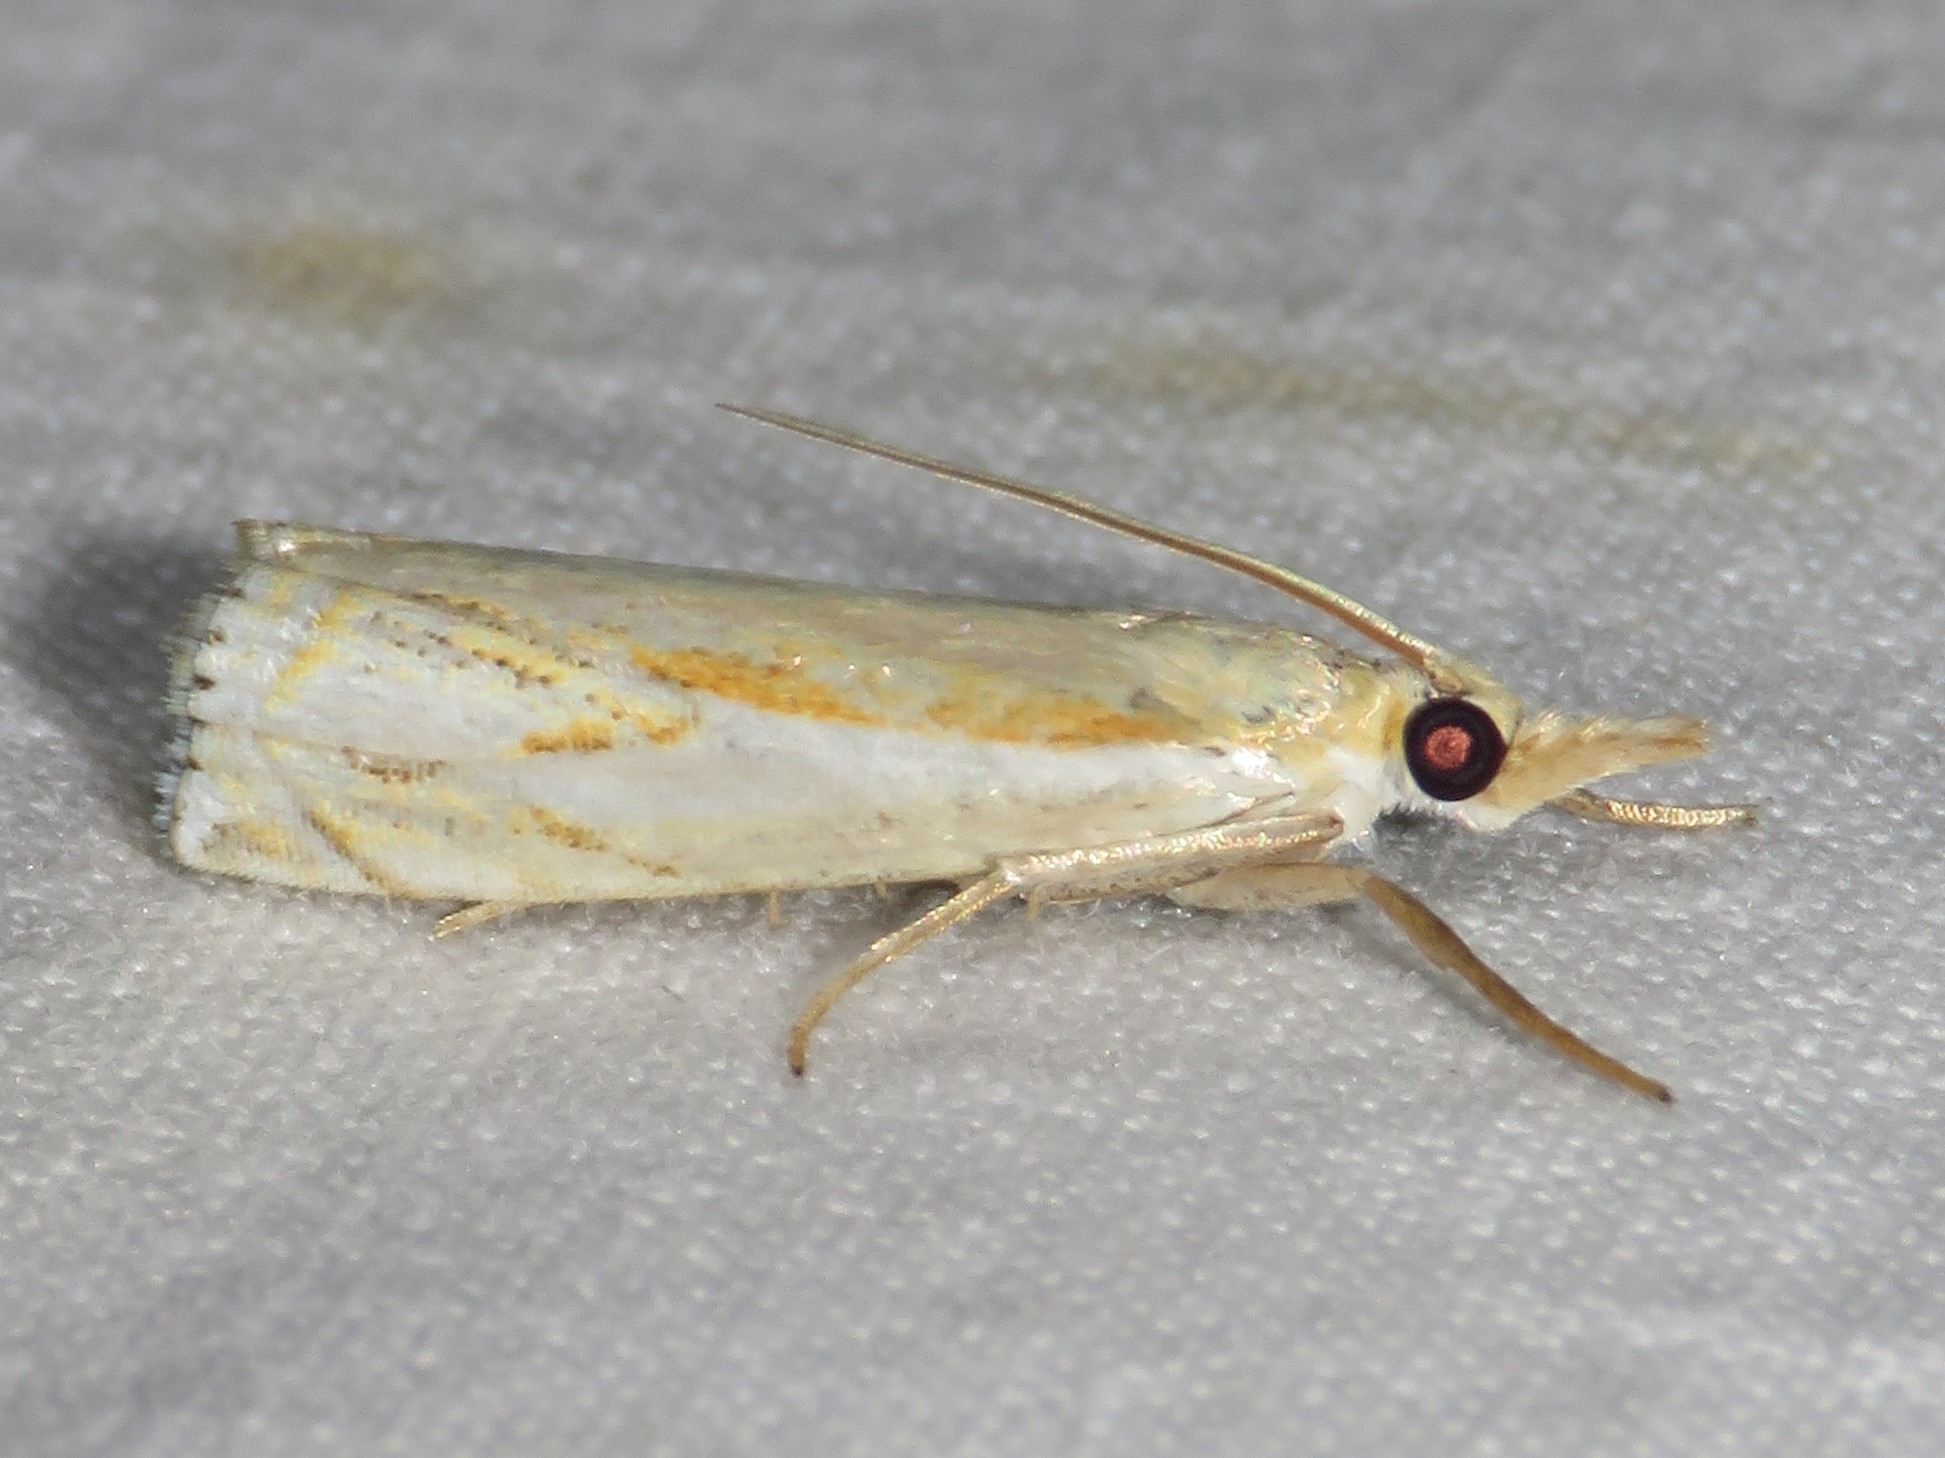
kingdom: Animalia
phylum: Arthropoda
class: Insecta
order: Lepidoptera
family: Crambidae
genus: Crambus
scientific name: Crambus agitatellus
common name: Double-banded grass-veneer
